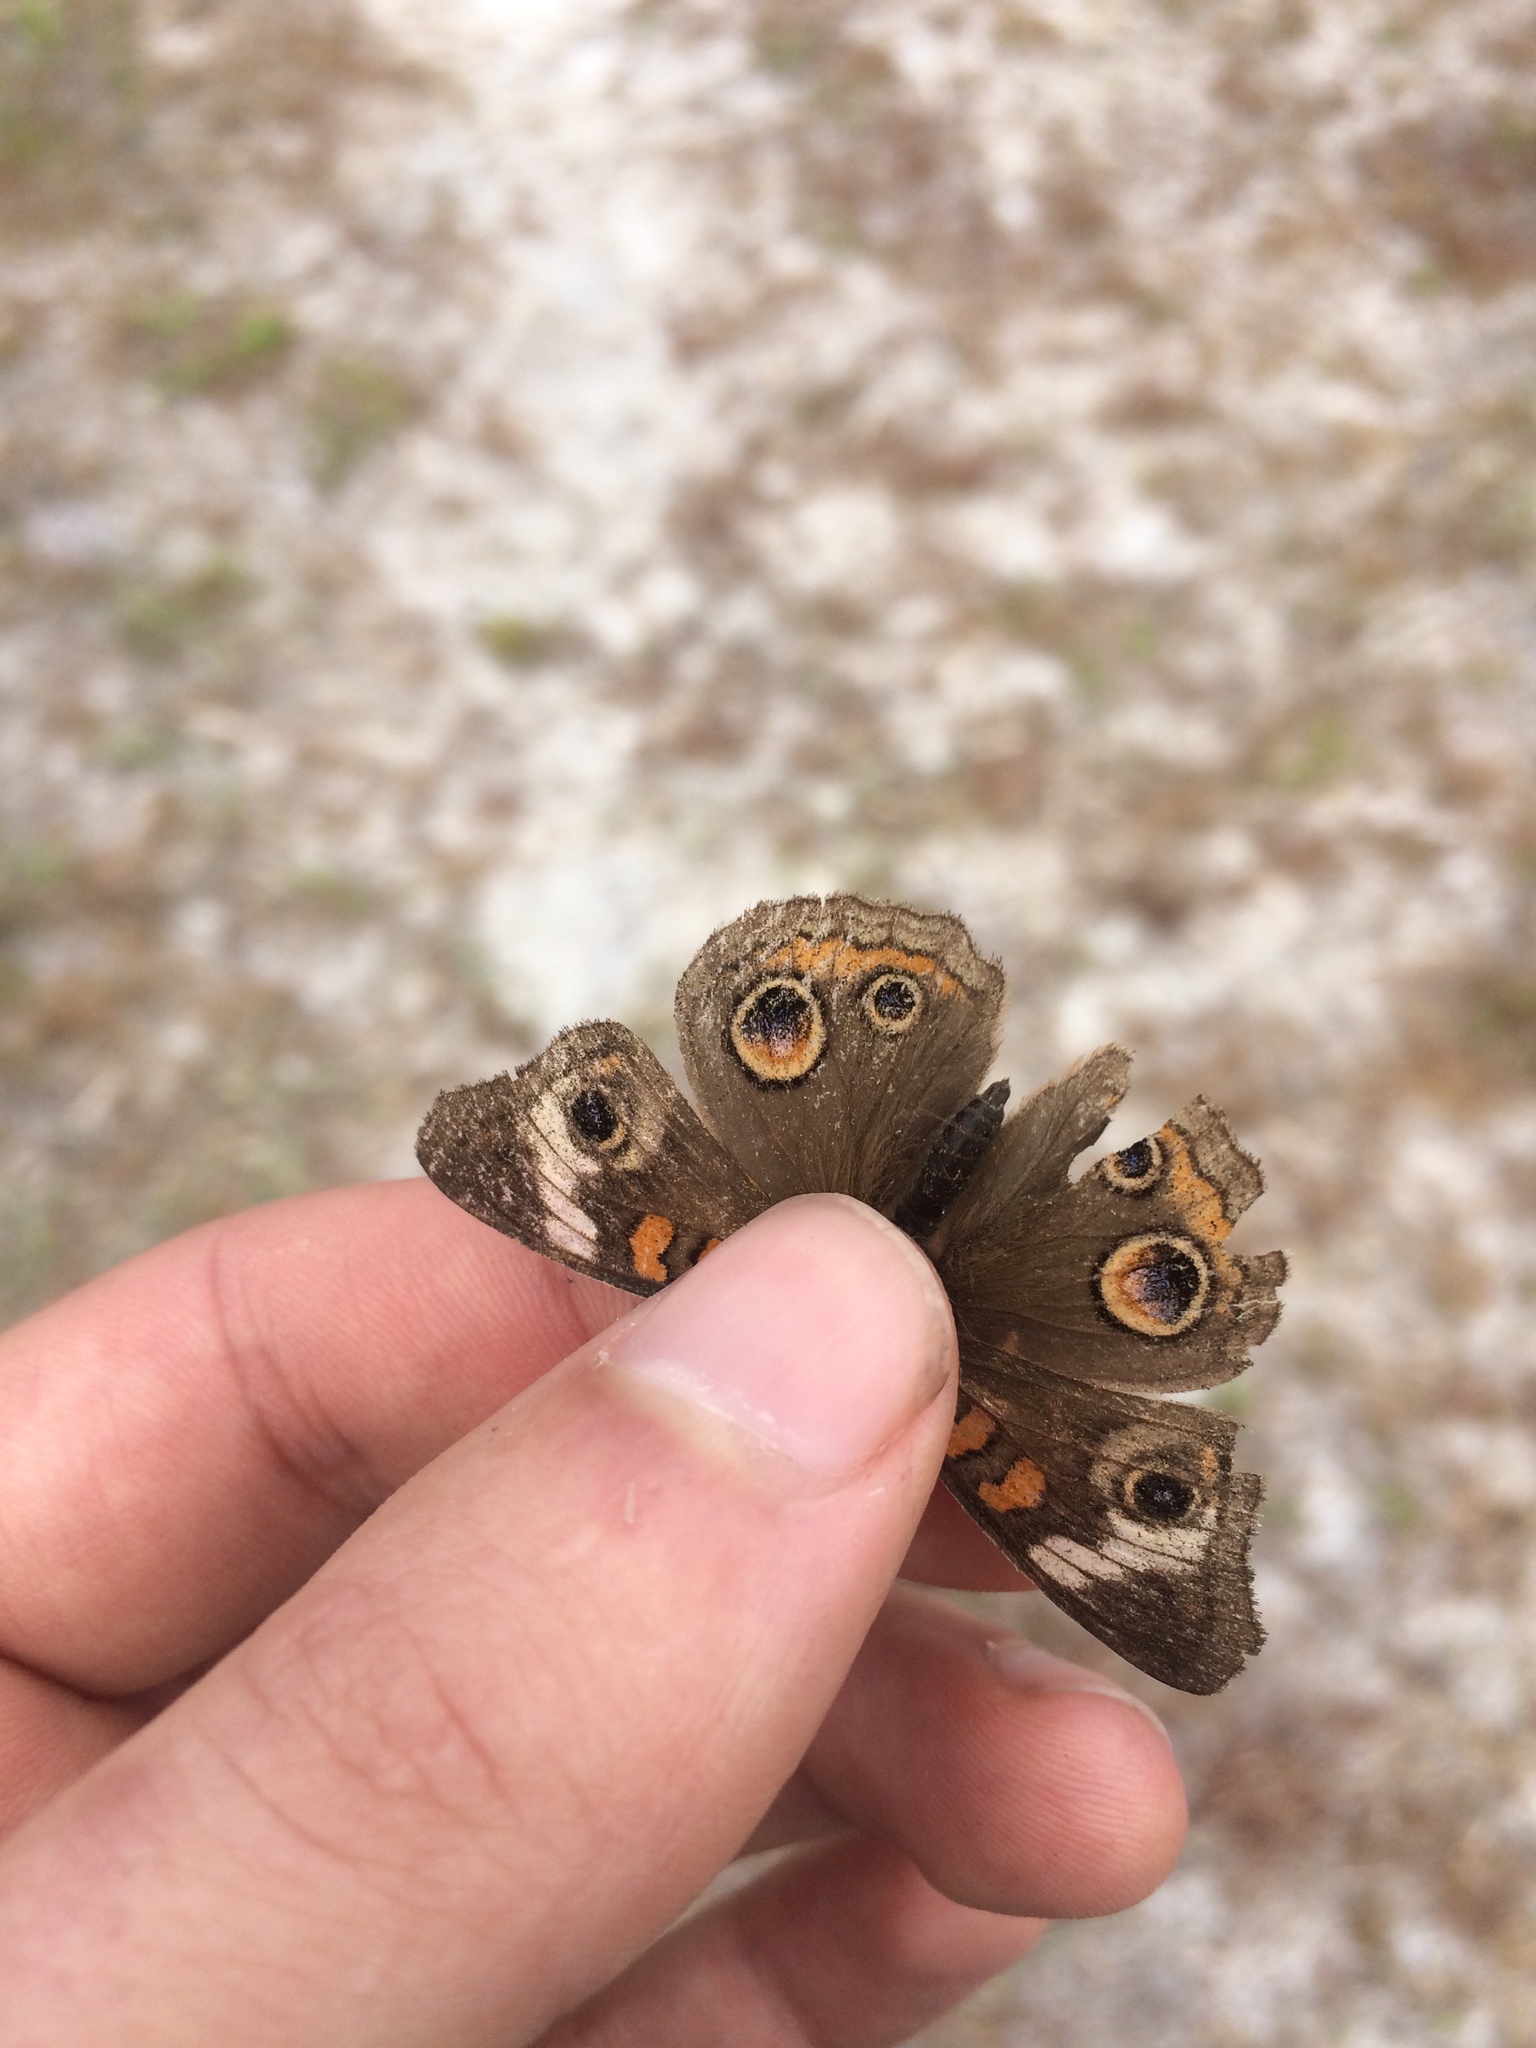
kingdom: Animalia
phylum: Arthropoda
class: Insecta
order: Lepidoptera
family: Nymphalidae
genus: Junonia
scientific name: Junonia coenia
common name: Common buckeye
